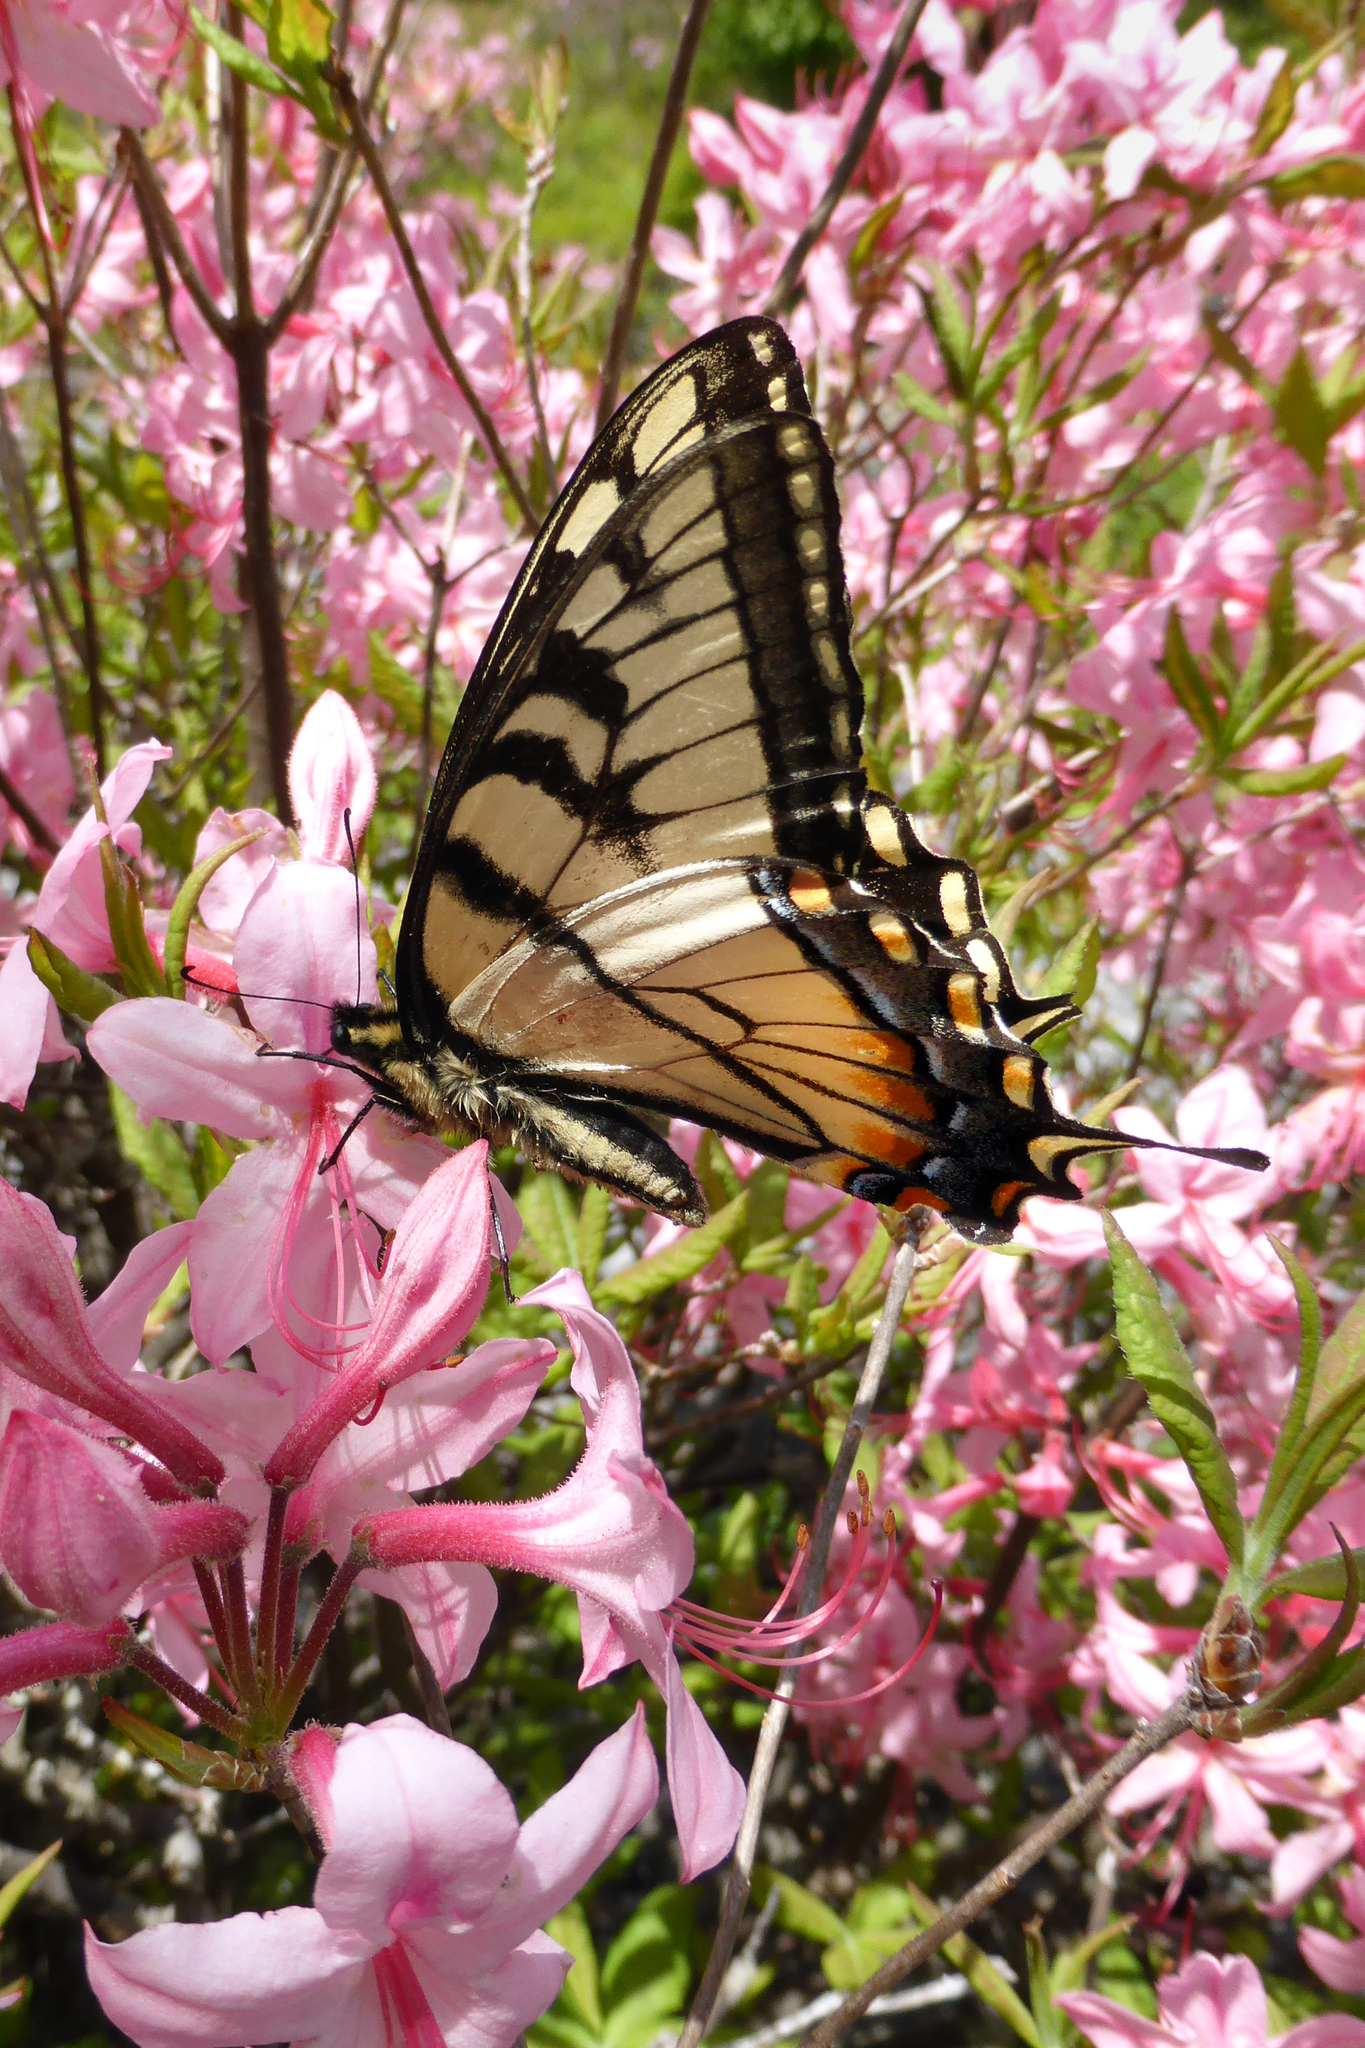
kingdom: Animalia
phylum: Arthropoda
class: Insecta
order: Lepidoptera
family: Papilionidae
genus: Papilio
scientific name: Papilio glaucus
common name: Tiger swallowtail
